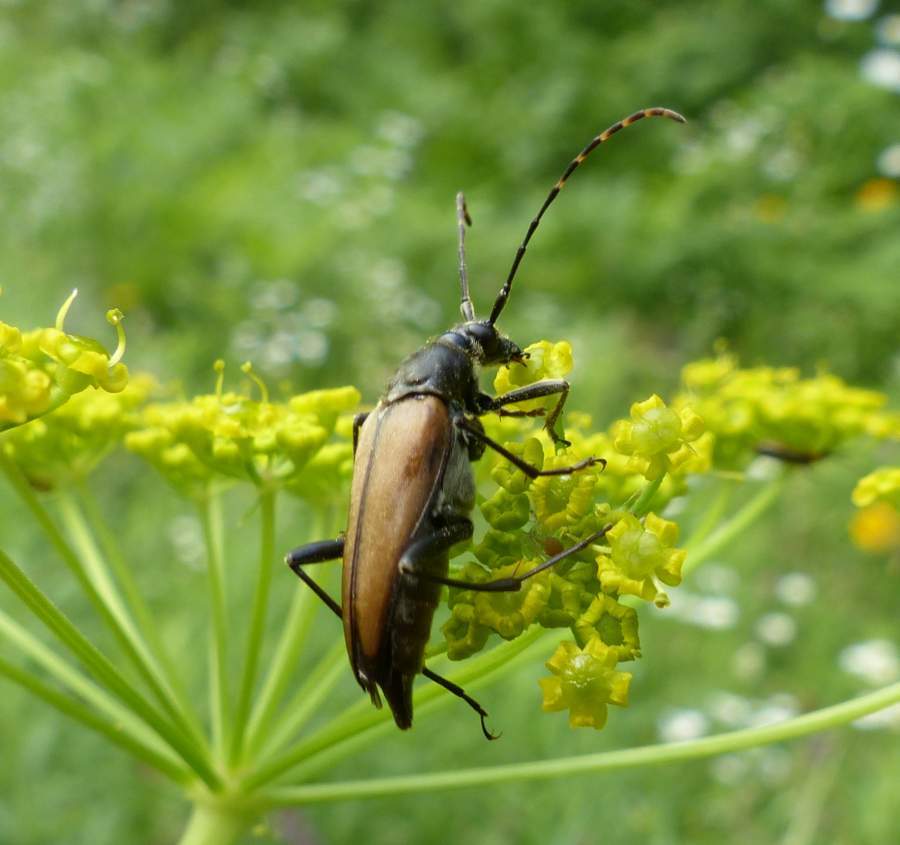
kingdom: Animalia
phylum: Arthropoda
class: Insecta
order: Coleoptera
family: Cerambycidae
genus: Etorofus
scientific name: Etorofus
